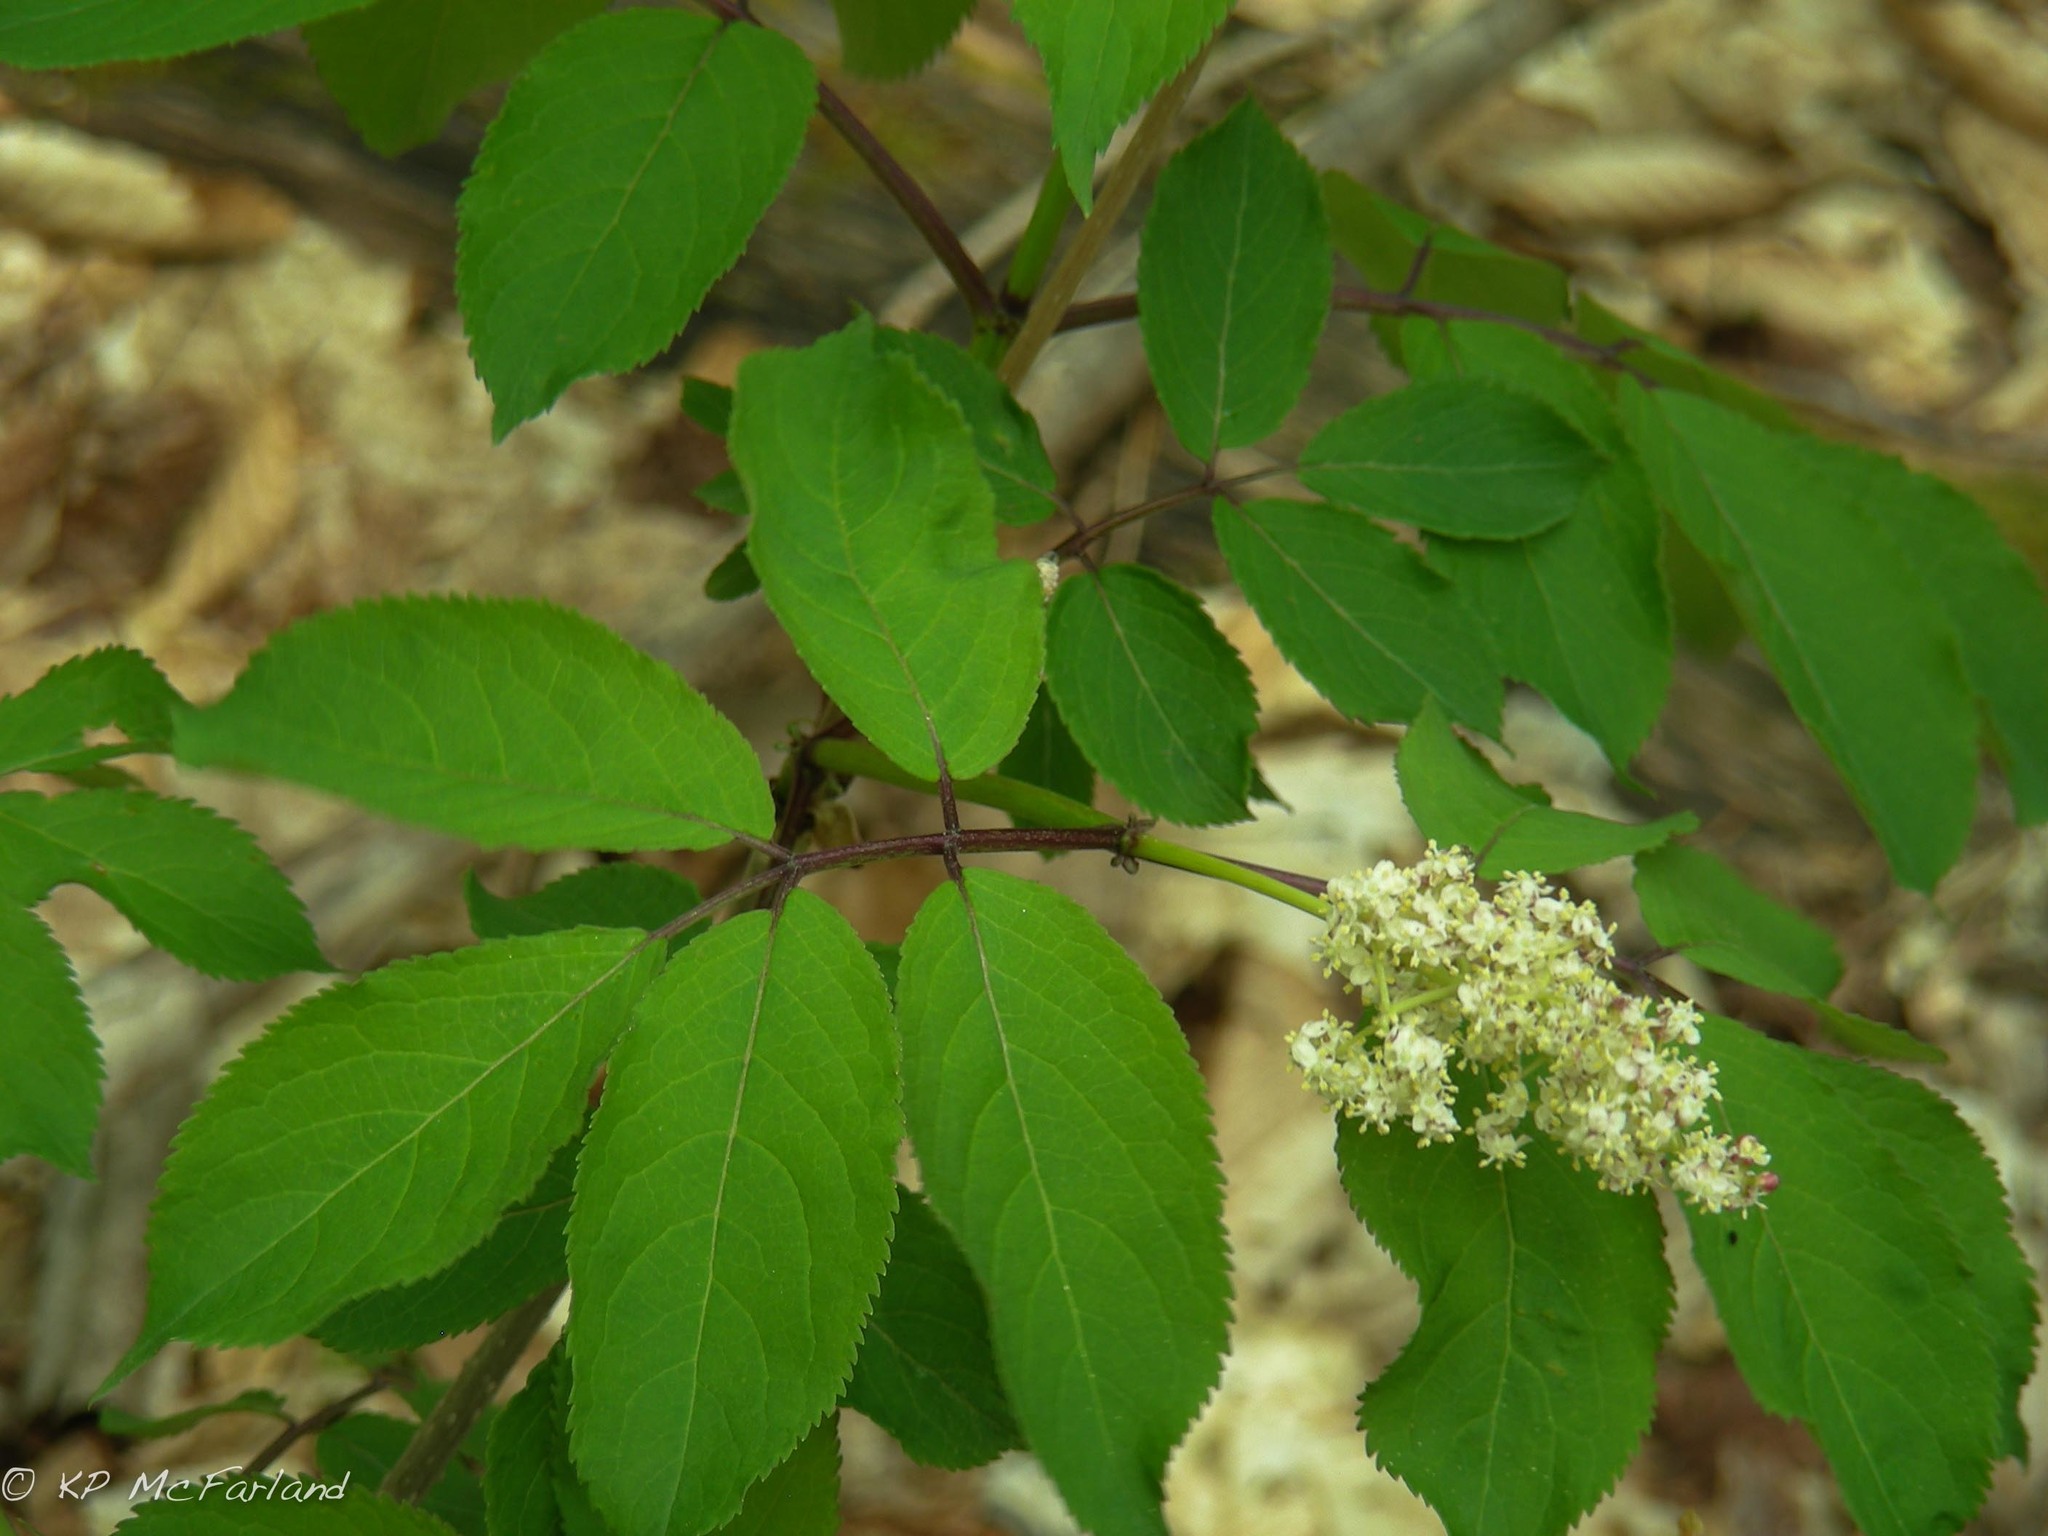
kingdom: Plantae
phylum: Tracheophyta
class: Magnoliopsida
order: Dipsacales
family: Viburnaceae
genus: Sambucus
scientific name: Sambucus racemosa
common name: Red-berried elder
